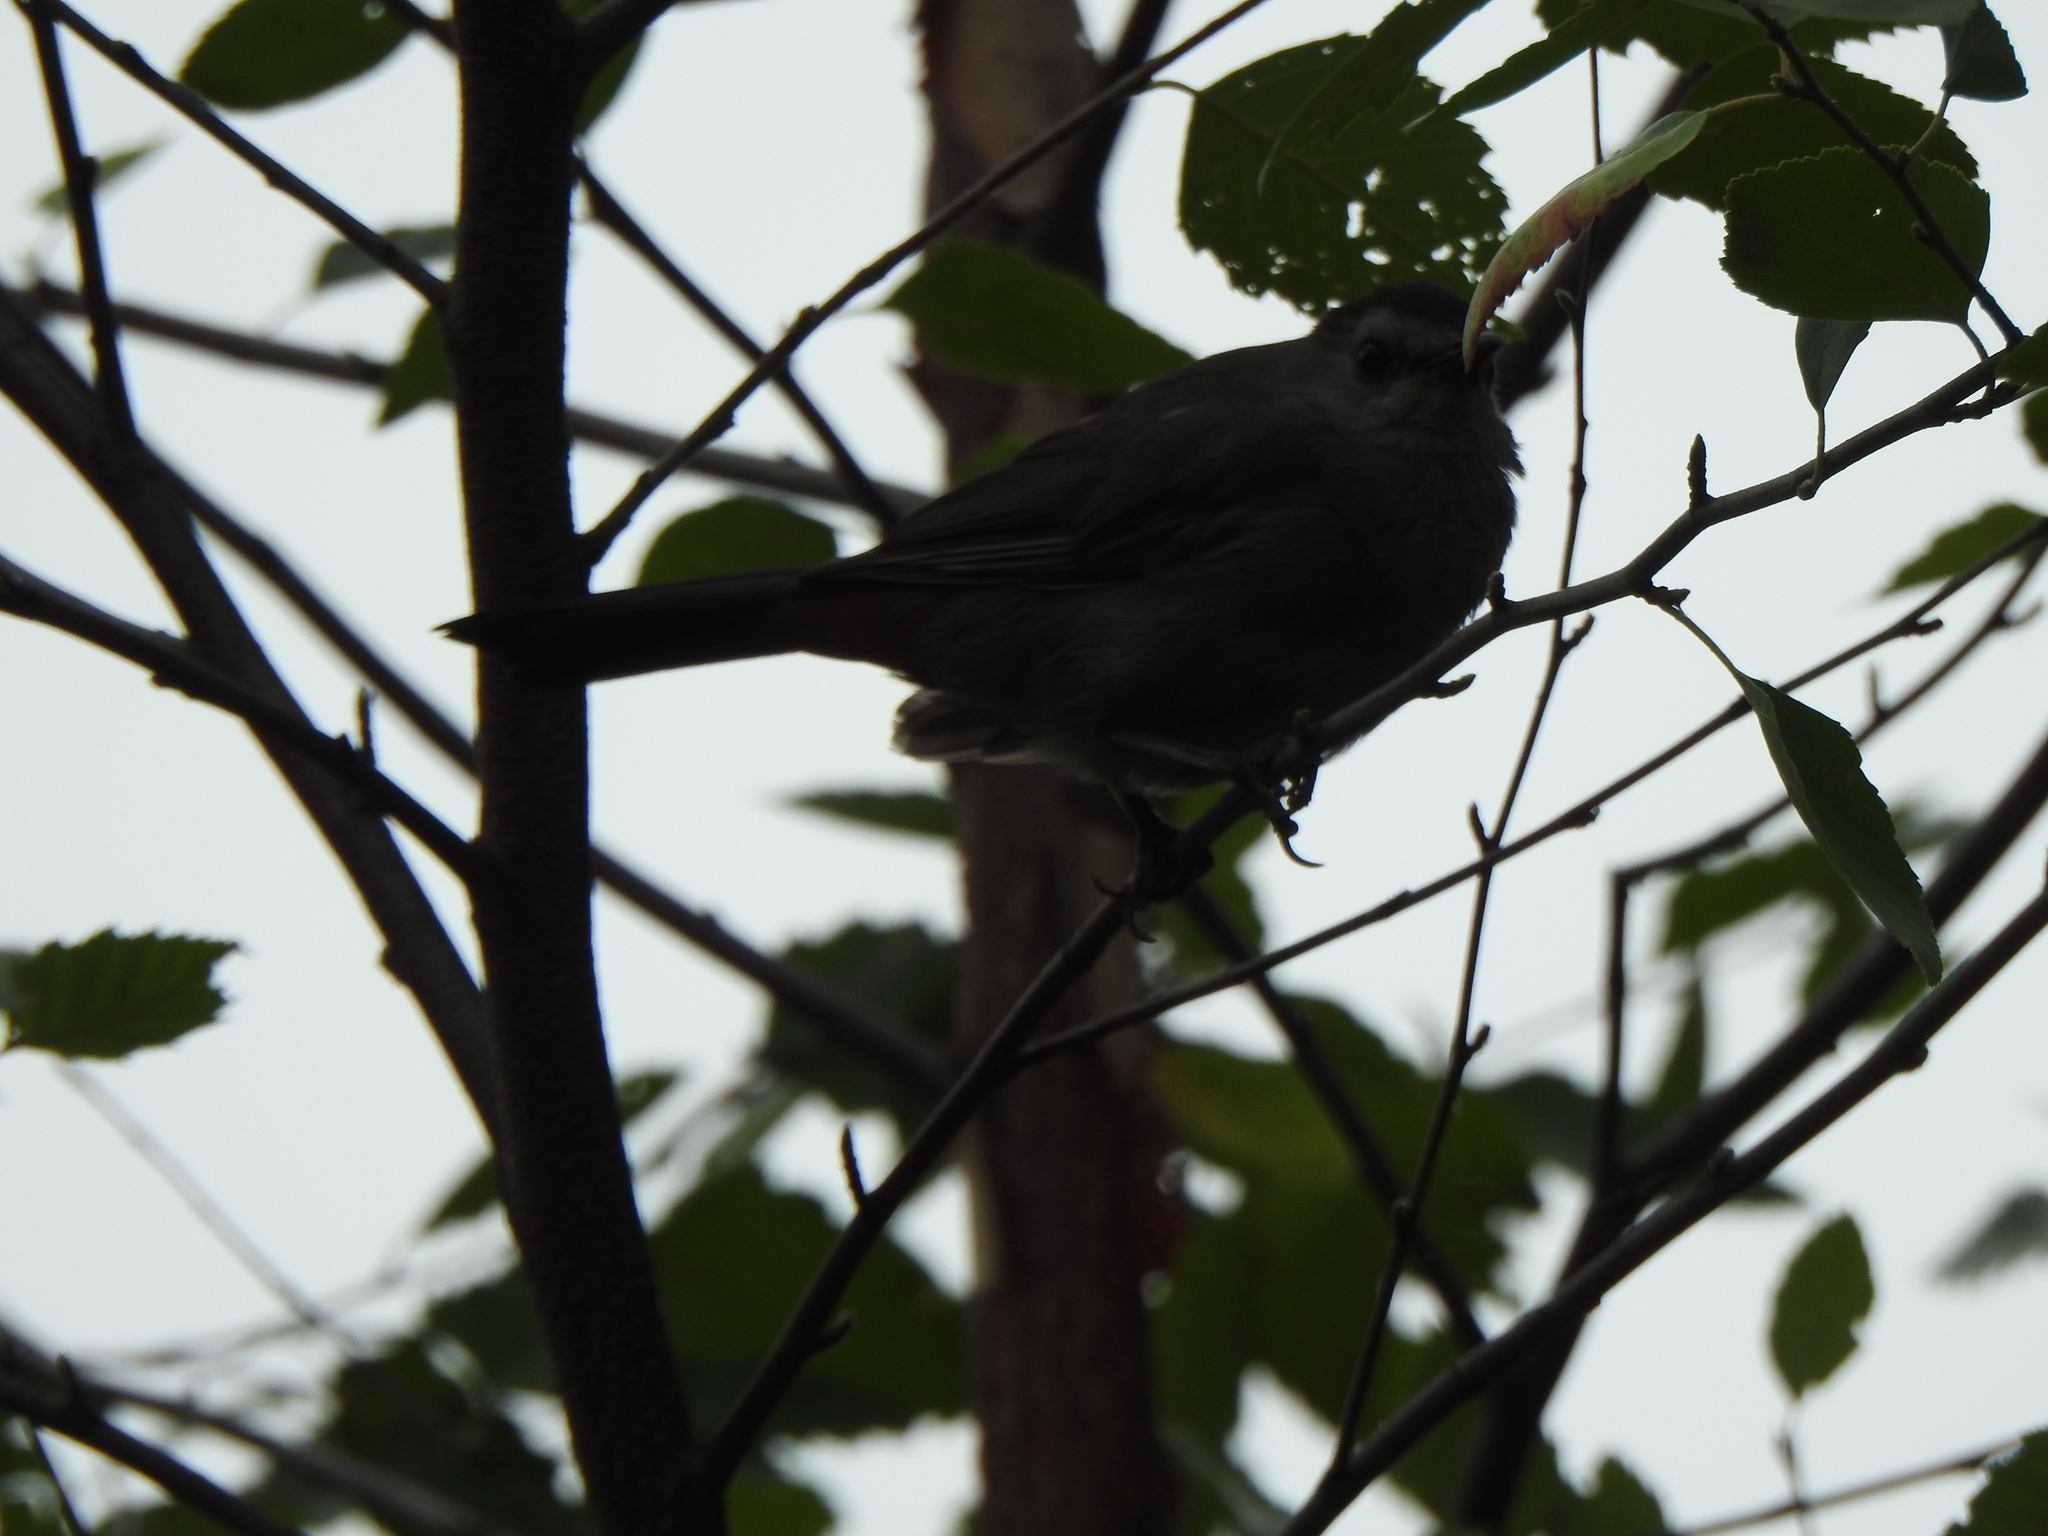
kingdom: Animalia
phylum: Chordata
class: Aves
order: Passeriformes
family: Mimidae
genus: Dumetella
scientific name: Dumetella carolinensis
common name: Gray catbird
